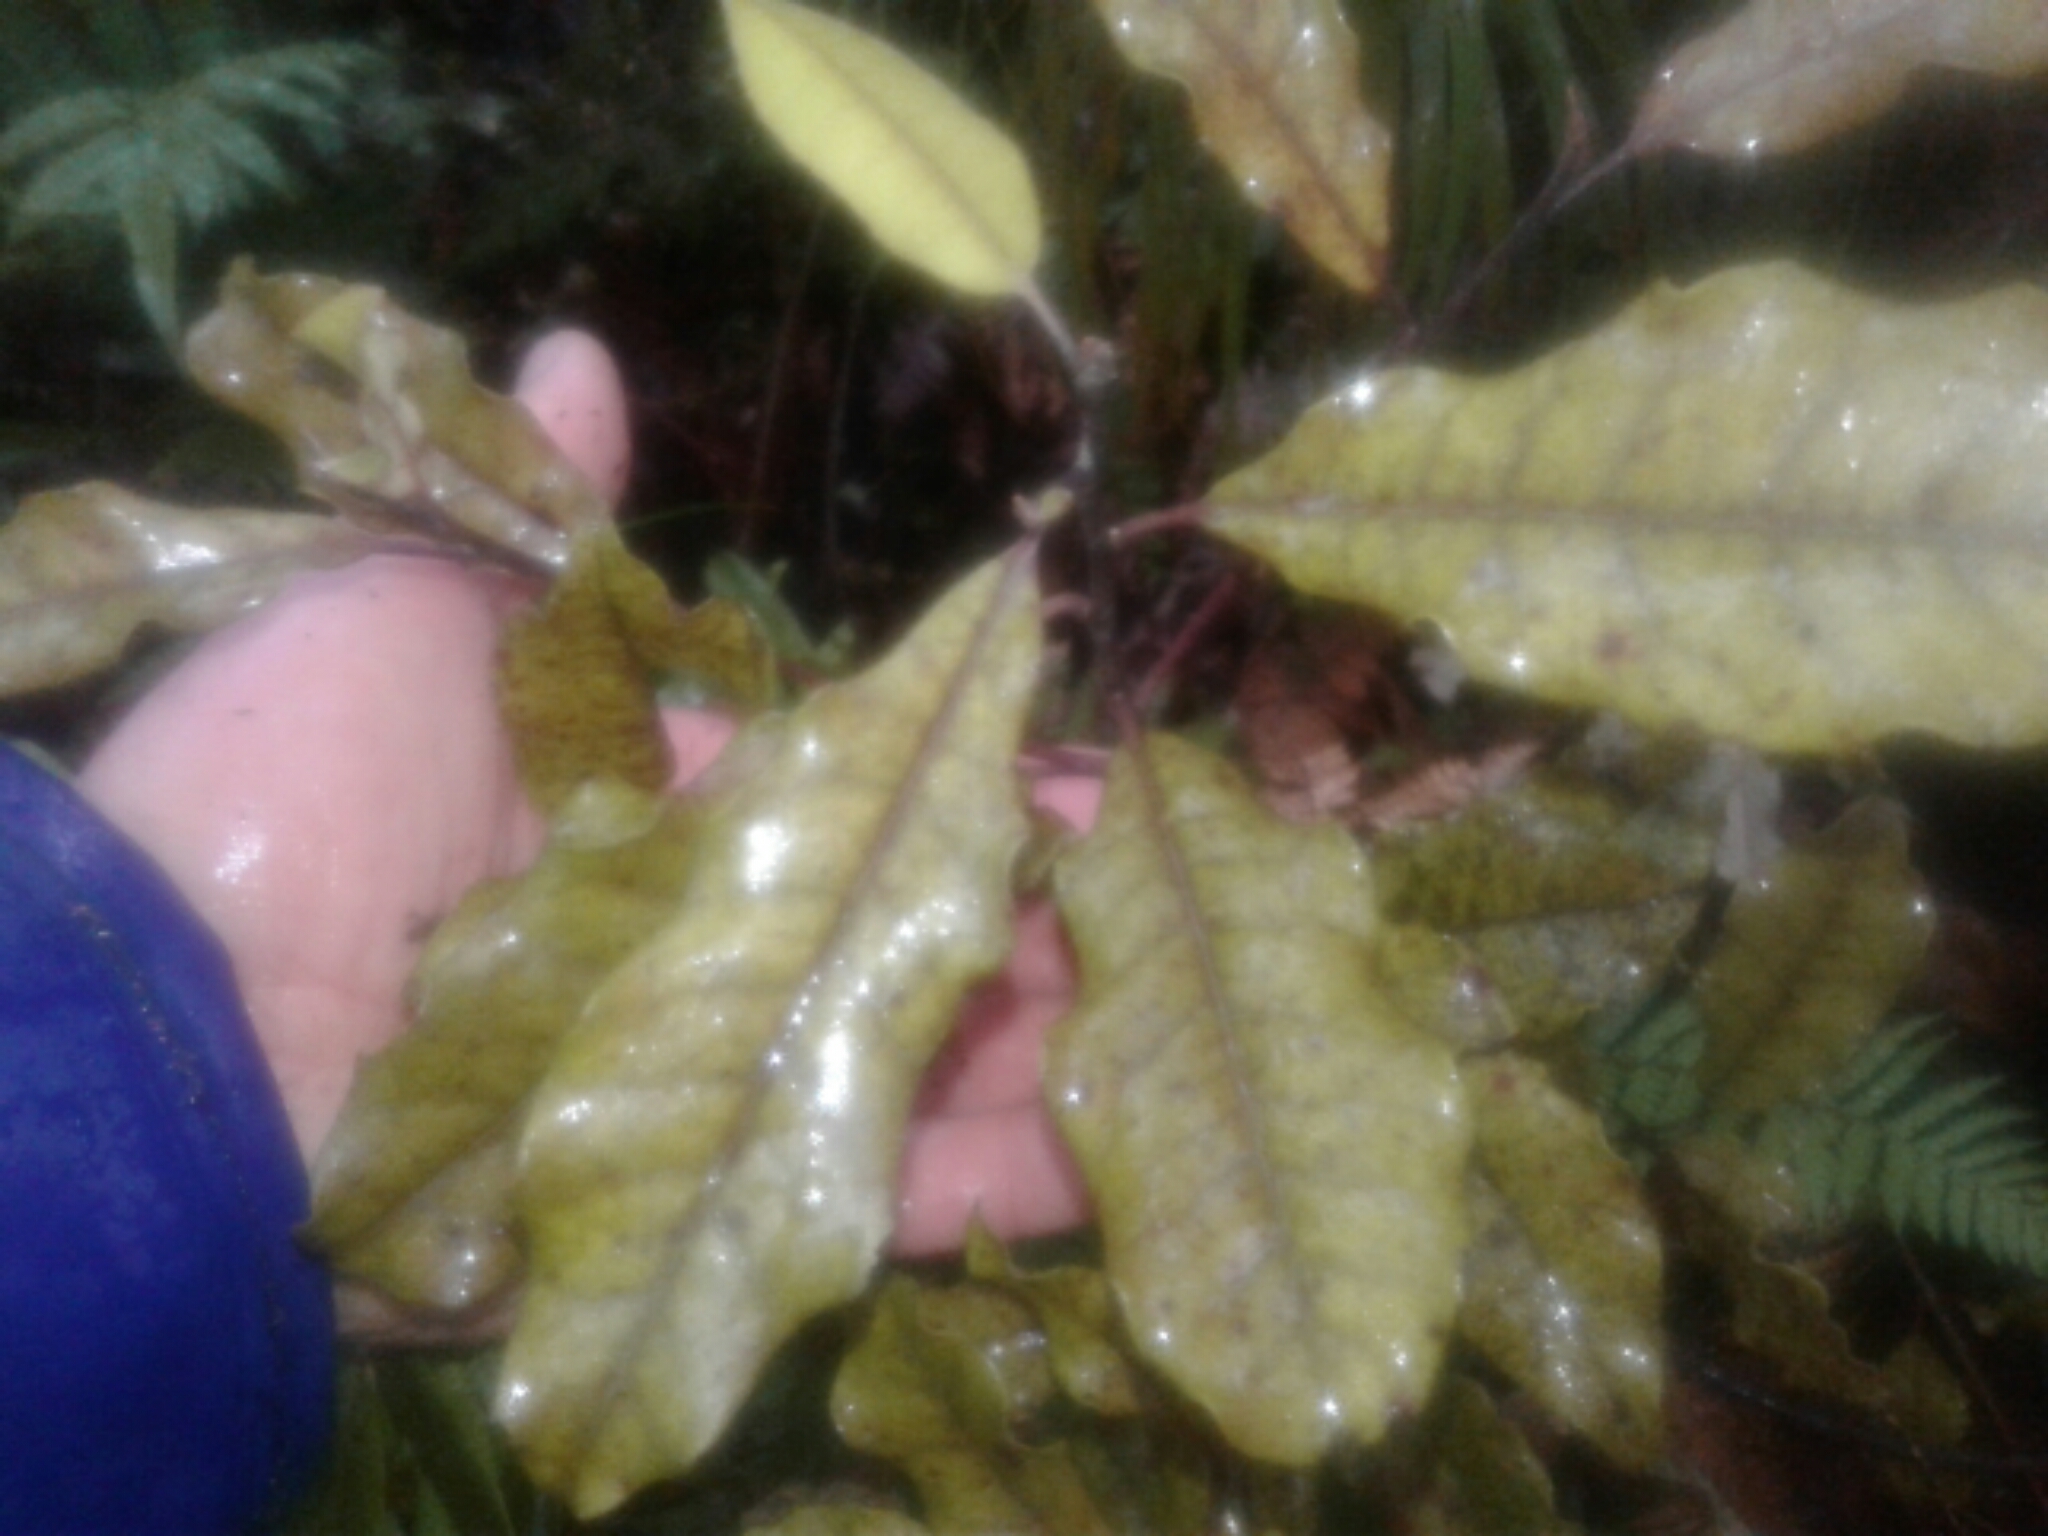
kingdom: Plantae
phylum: Tracheophyta
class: Magnoliopsida
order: Paracryphiales
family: Paracryphiaceae
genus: Quintinia
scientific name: Quintinia serrata
